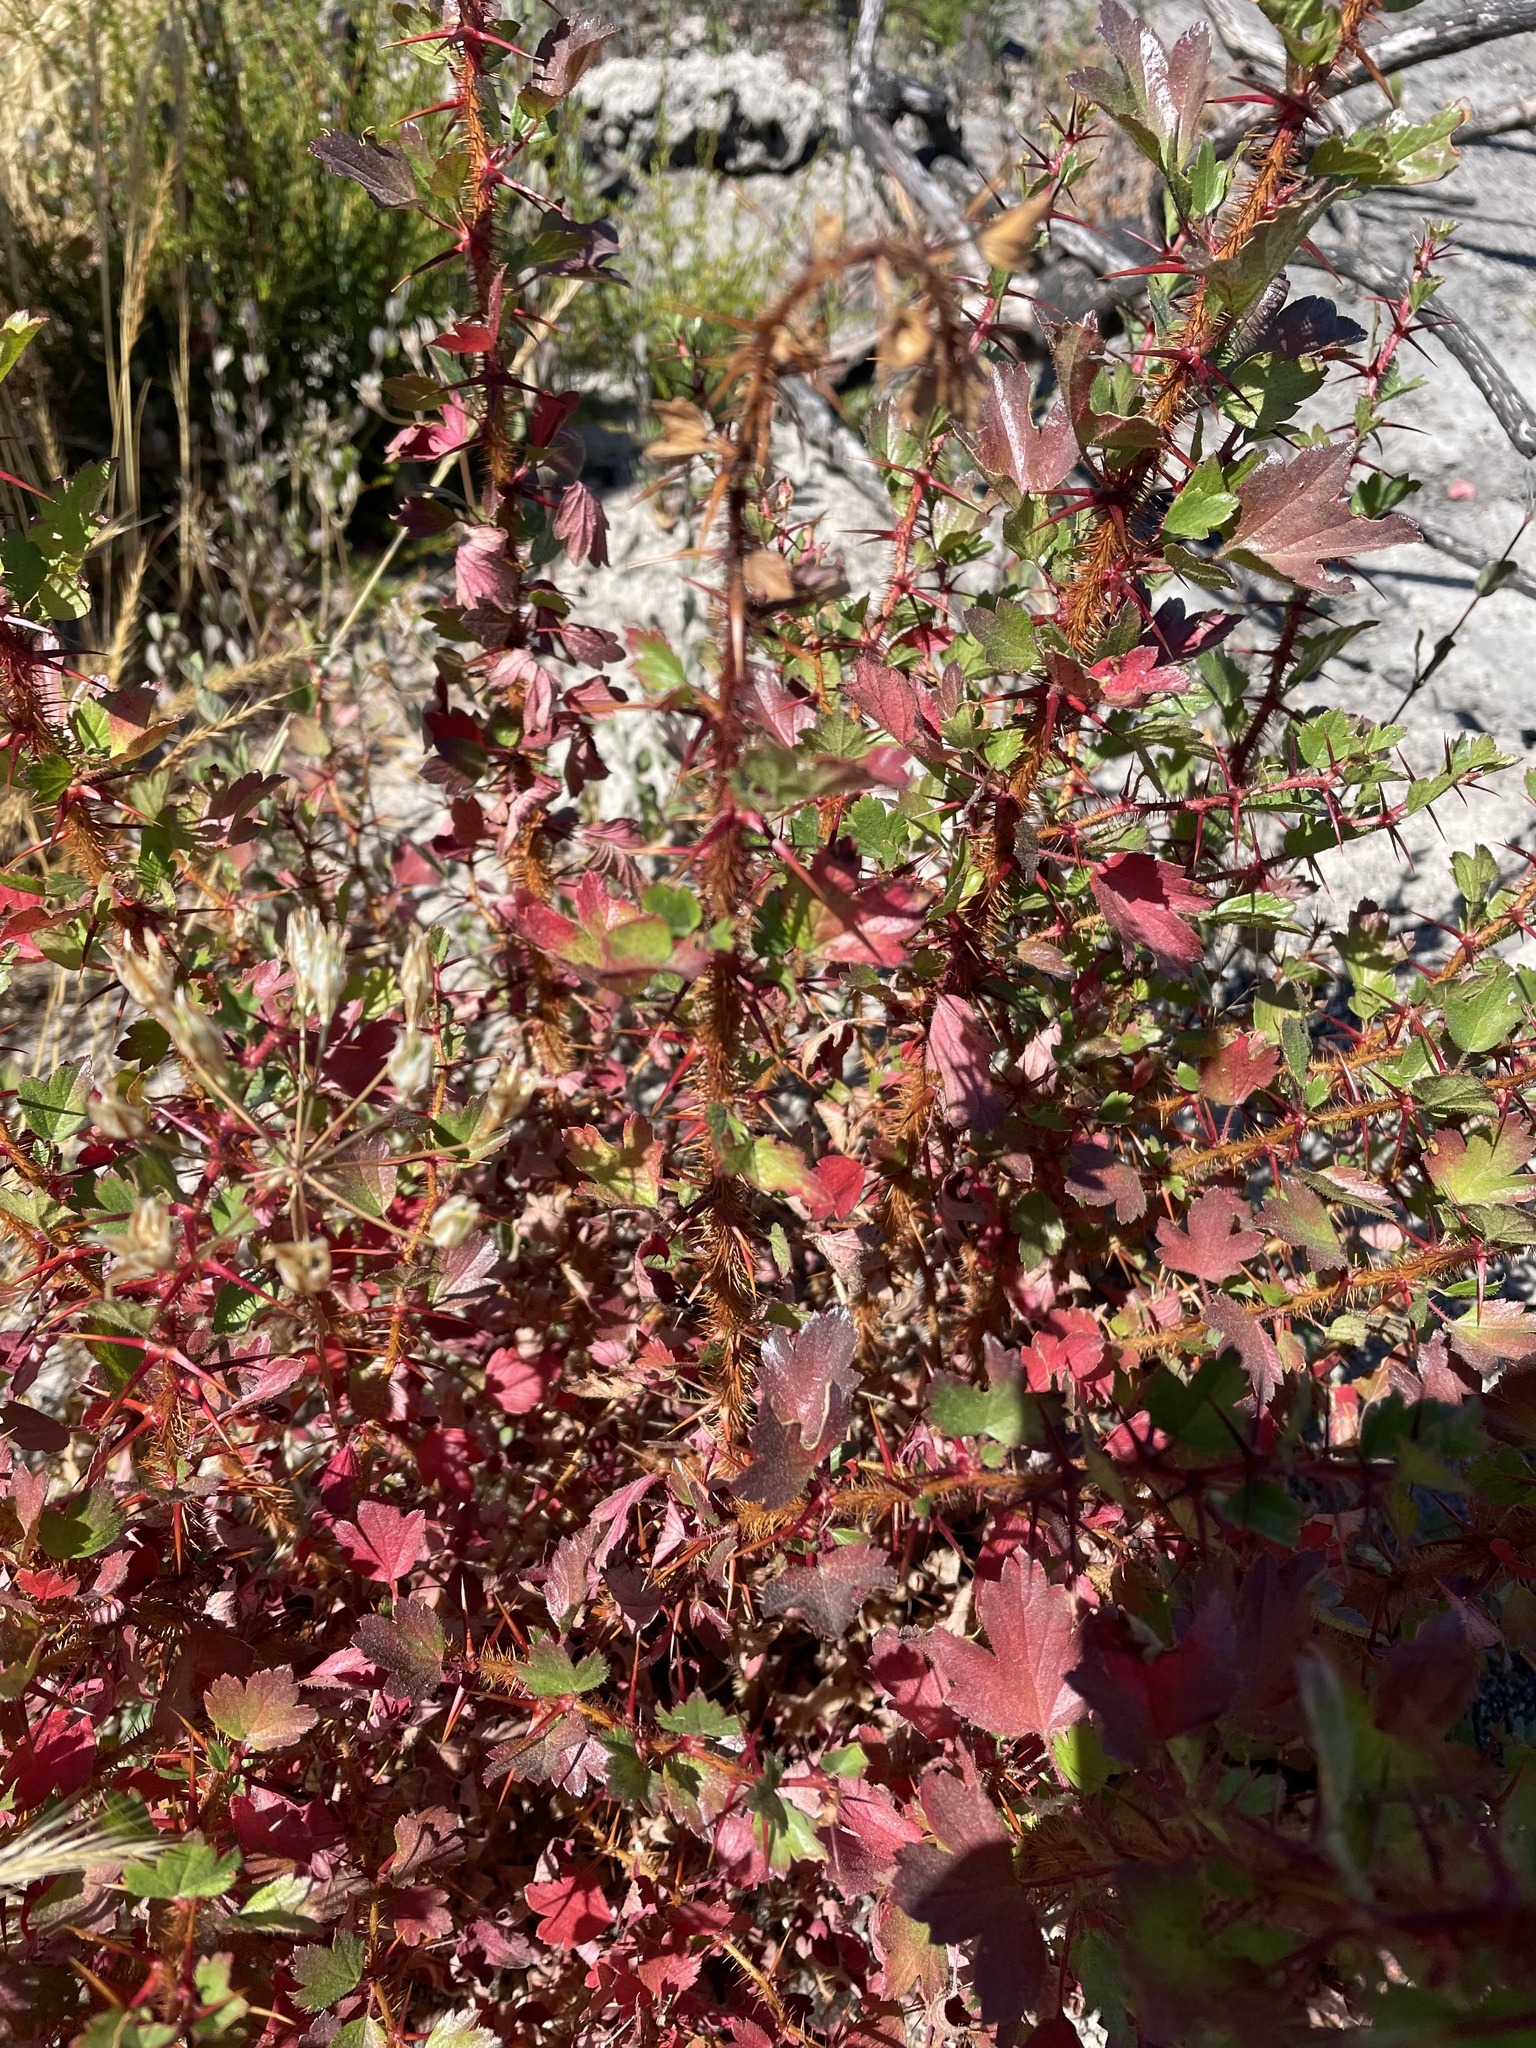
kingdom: Plantae
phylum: Tracheophyta
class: Magnoliopsida
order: Saxifragales
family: Grossulariaceae
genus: Ribes
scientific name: Ribes speciosum
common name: Fuchsia-flower gooseberry
